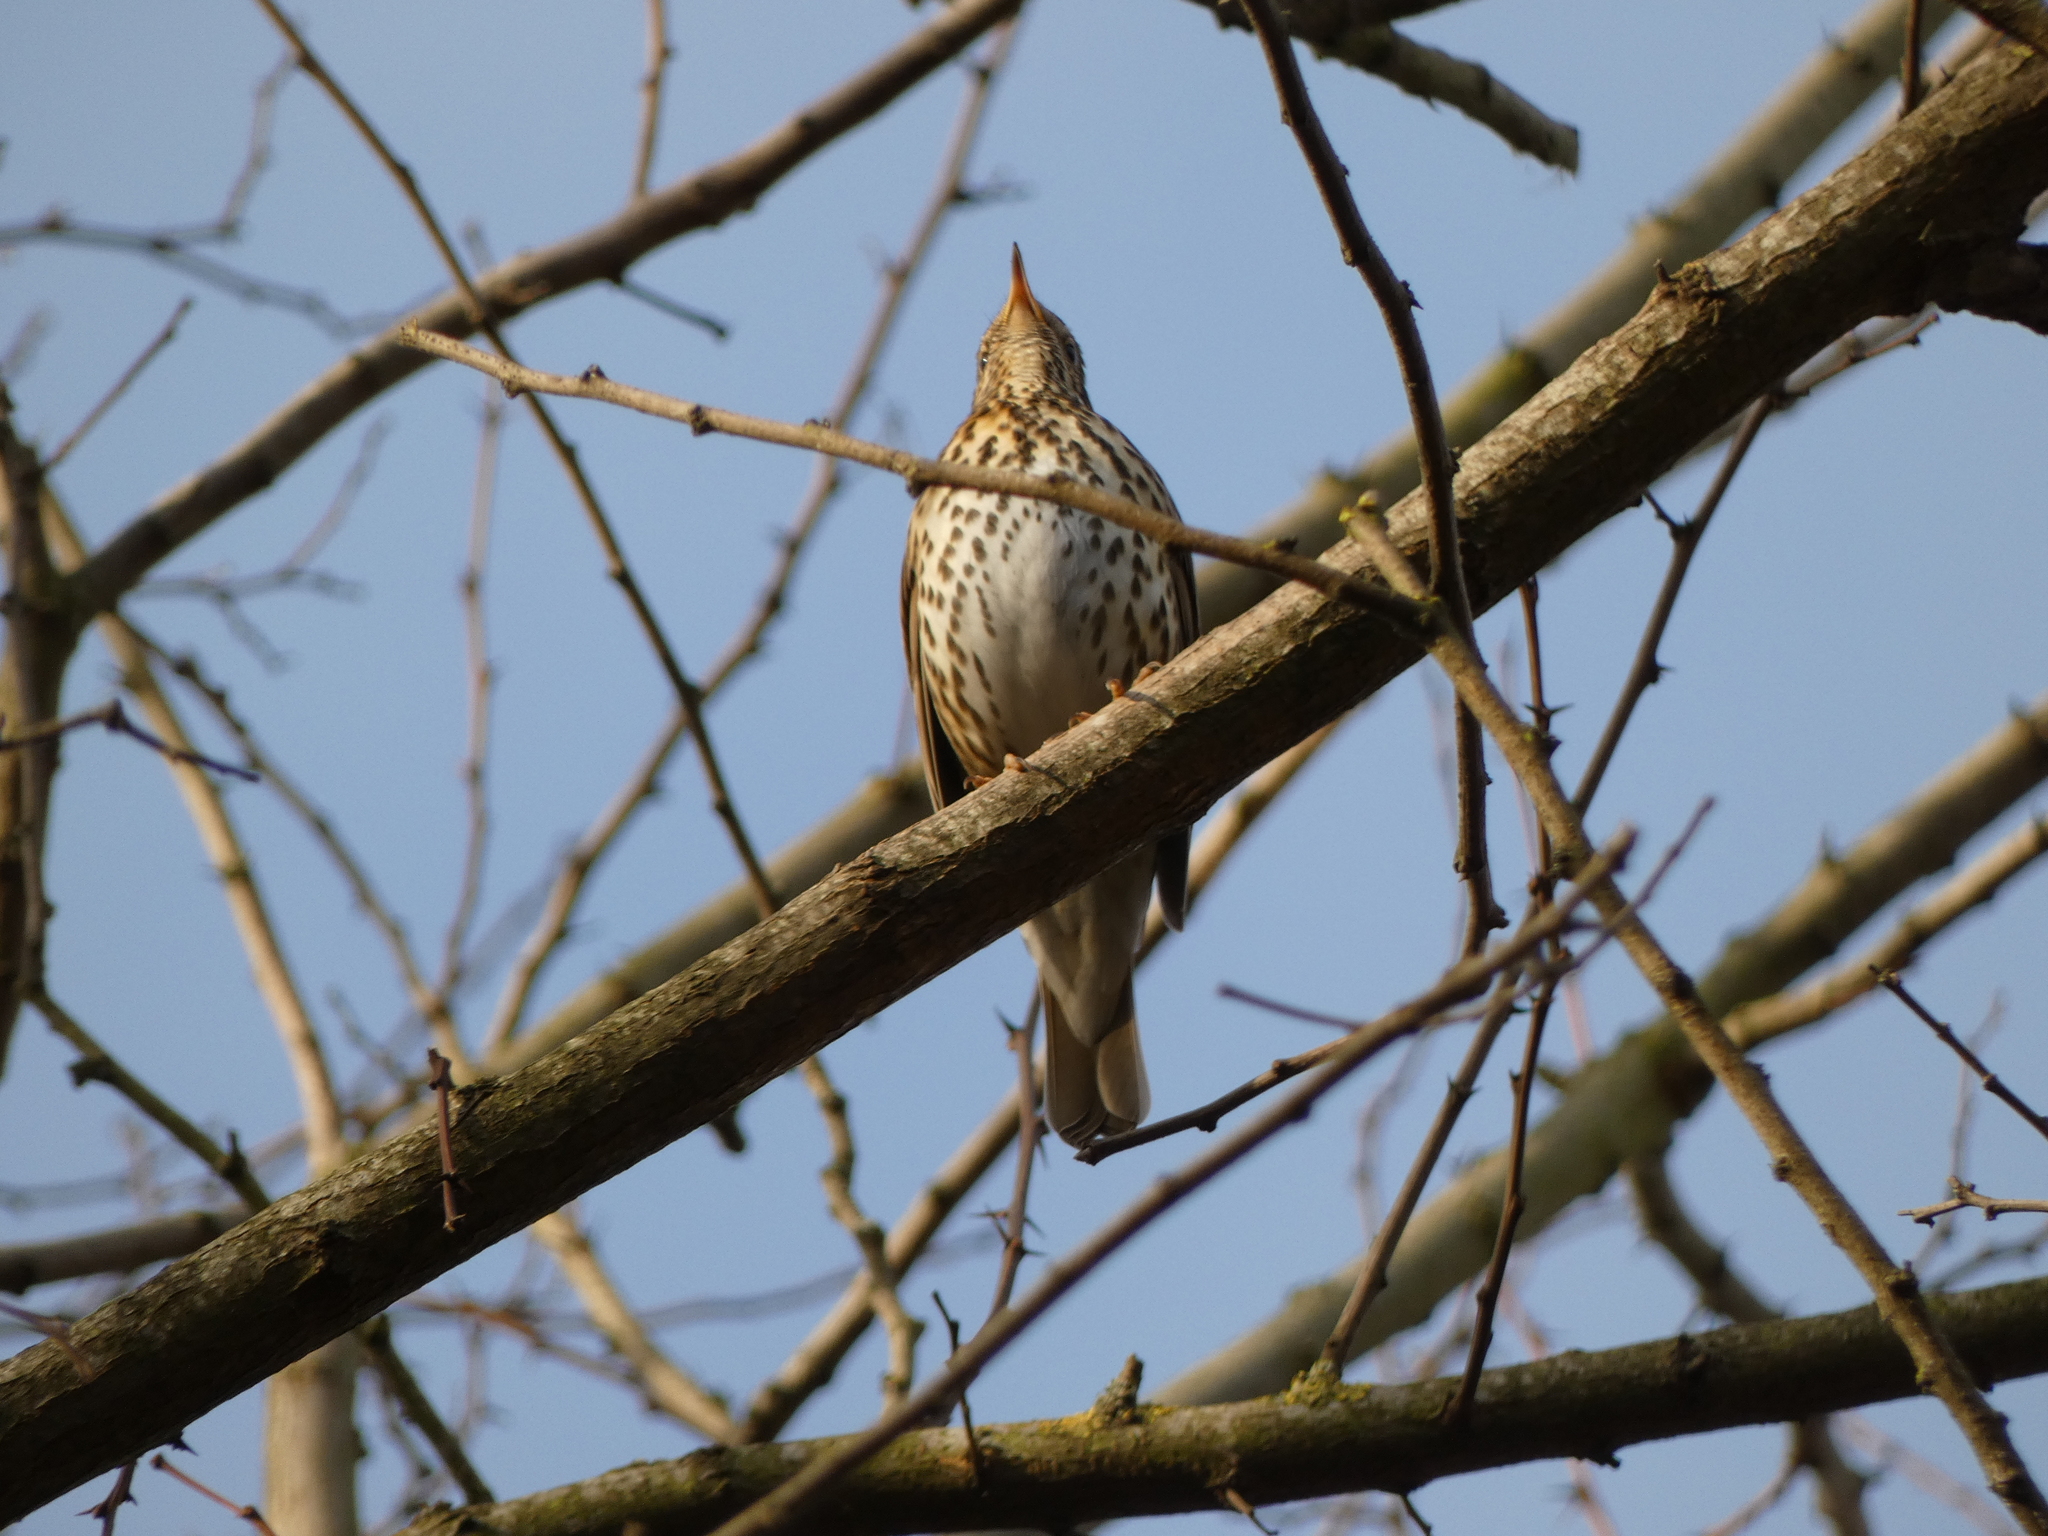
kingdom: Animalia
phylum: Chordata
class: Aves
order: Passeriformes
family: Turdidae
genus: Turdus
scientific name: Turdus philomelos
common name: Song thrush
